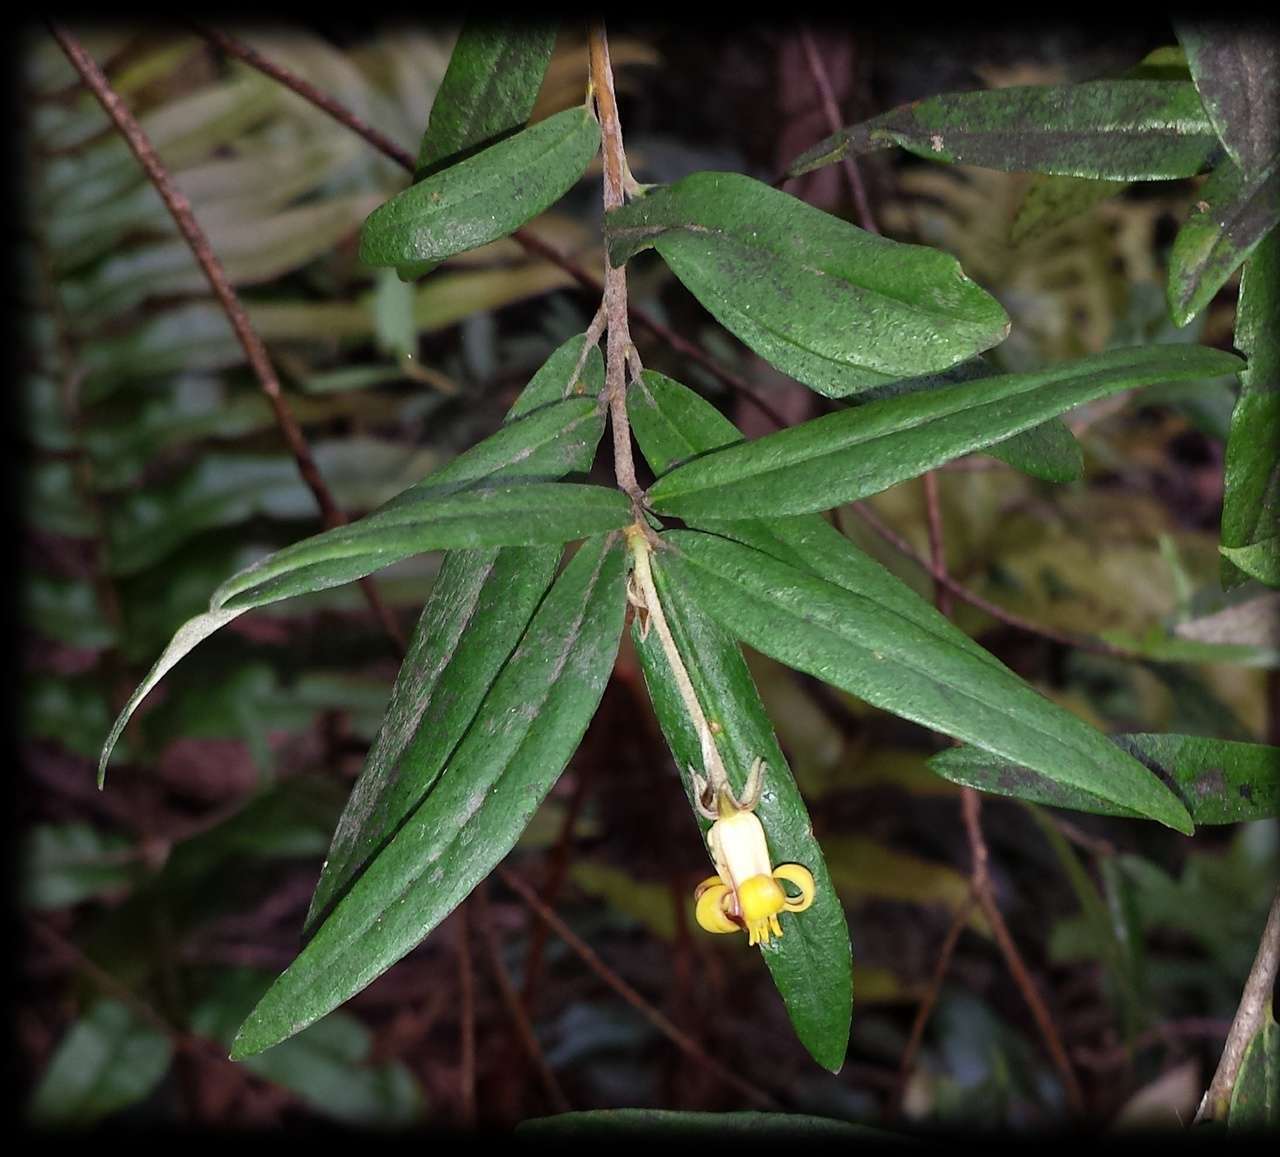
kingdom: Plantae
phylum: Tracheophyta
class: Magnoliopsida
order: Apiales
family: Pittosporaceae
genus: Pittosporum
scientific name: Pittosporum bicolor
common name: Tallowwood
